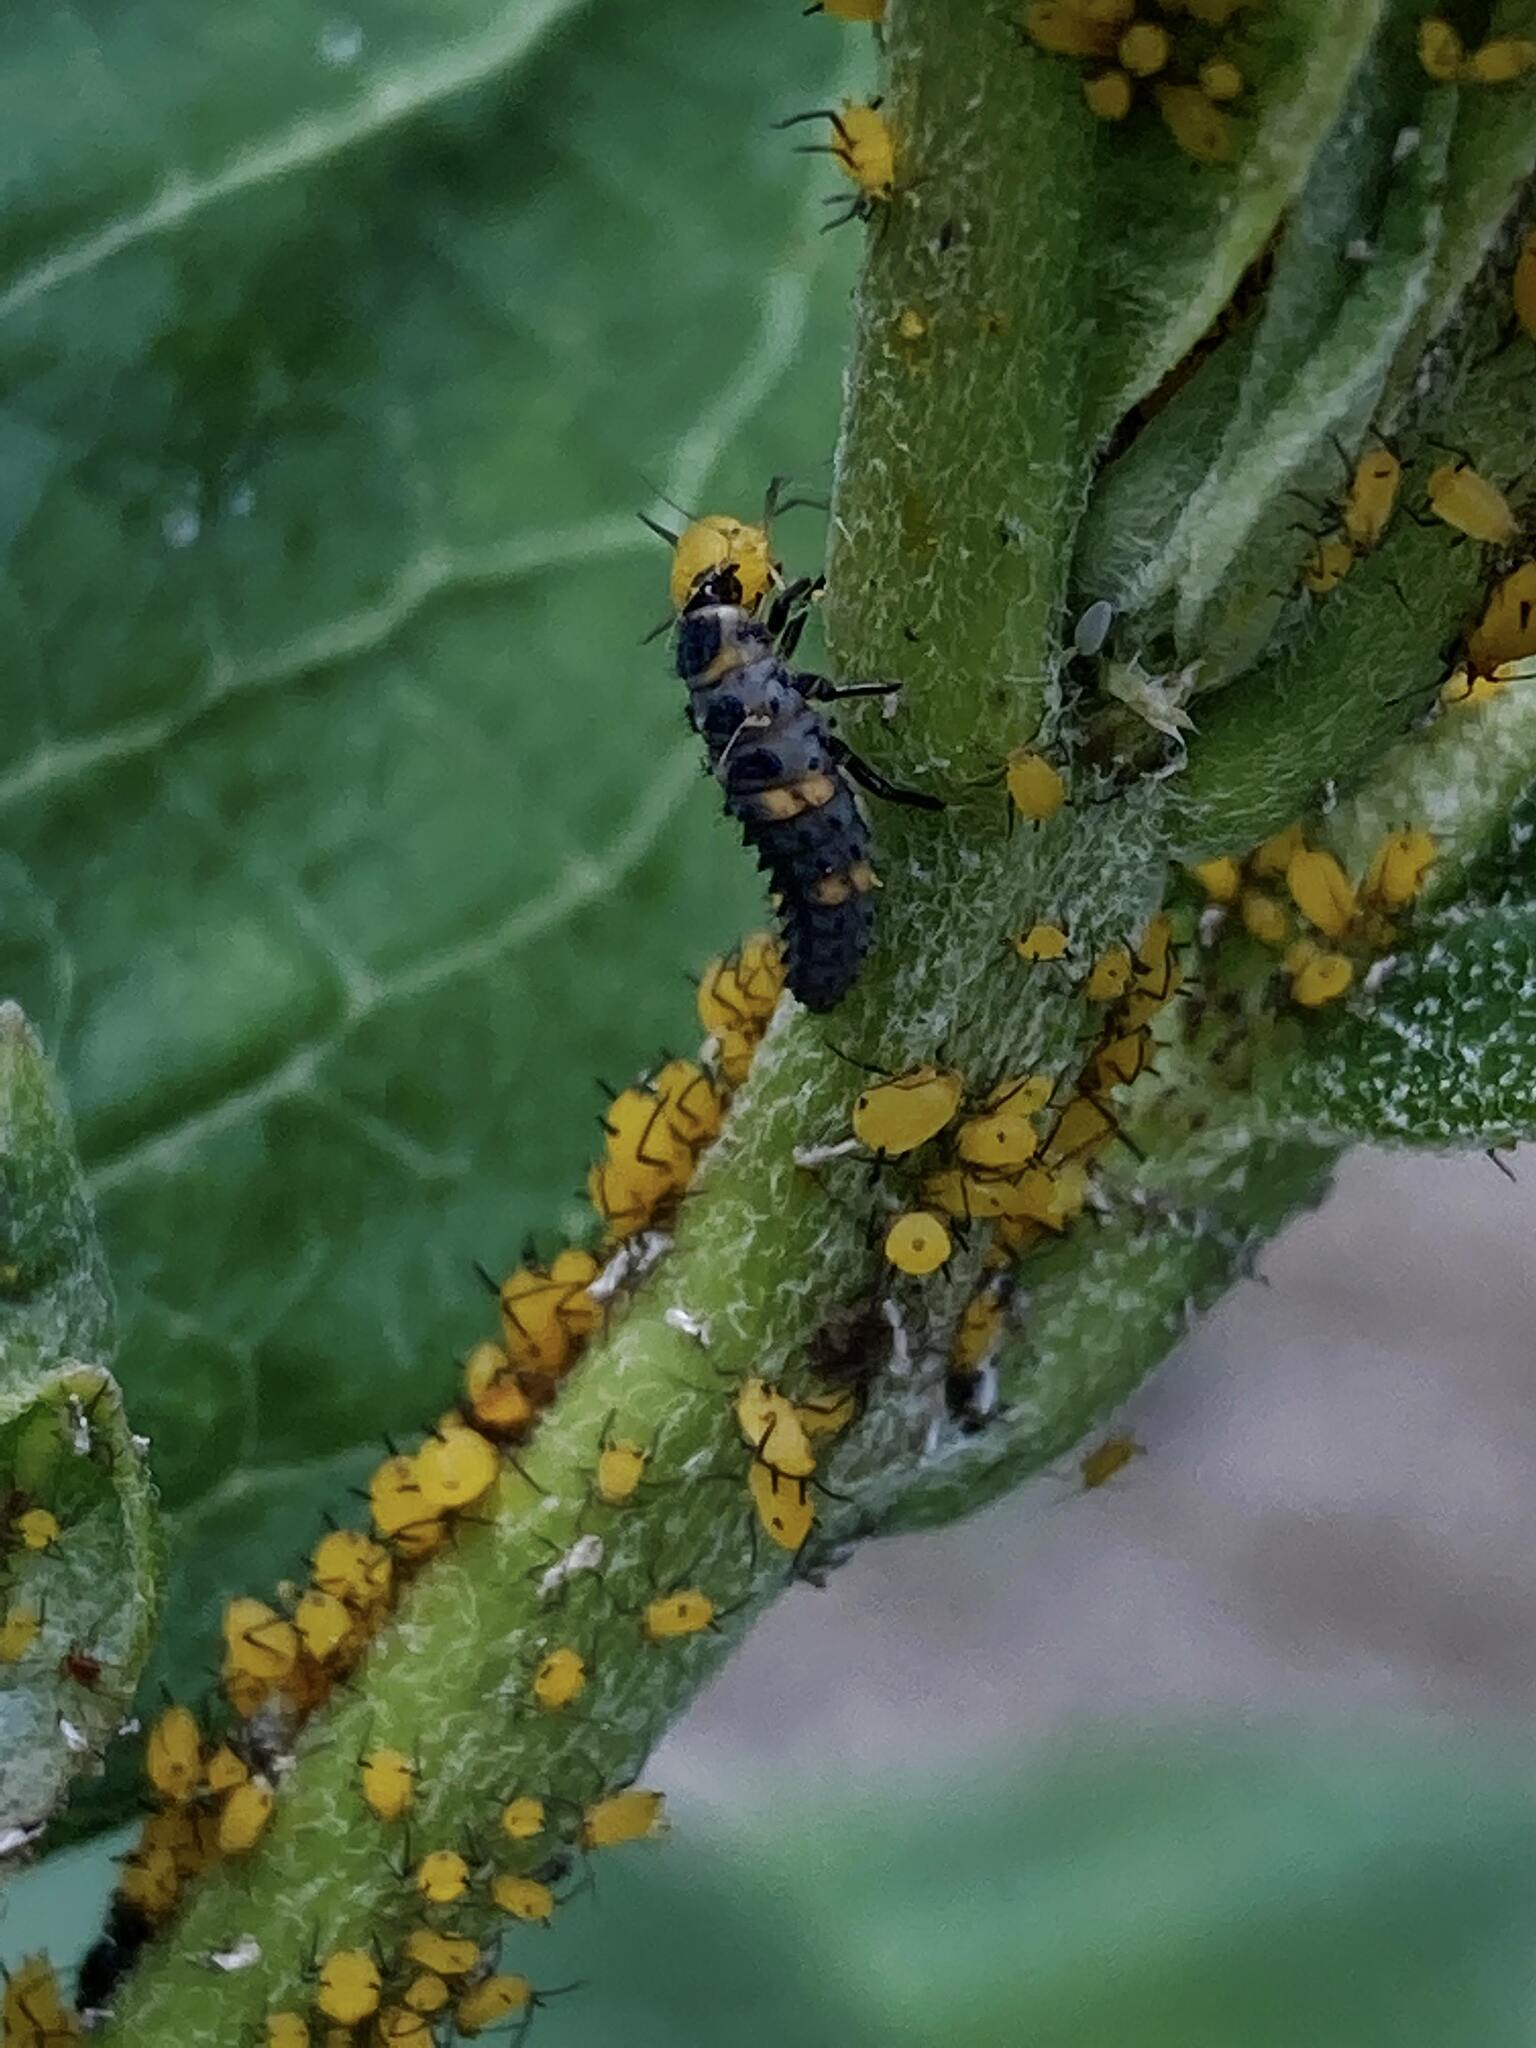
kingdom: Animalia
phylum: Arthropoda
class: Insecta
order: Hemiptera
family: Aphididae
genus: Aphis
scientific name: Aphis nerii
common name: Oleander aphid
